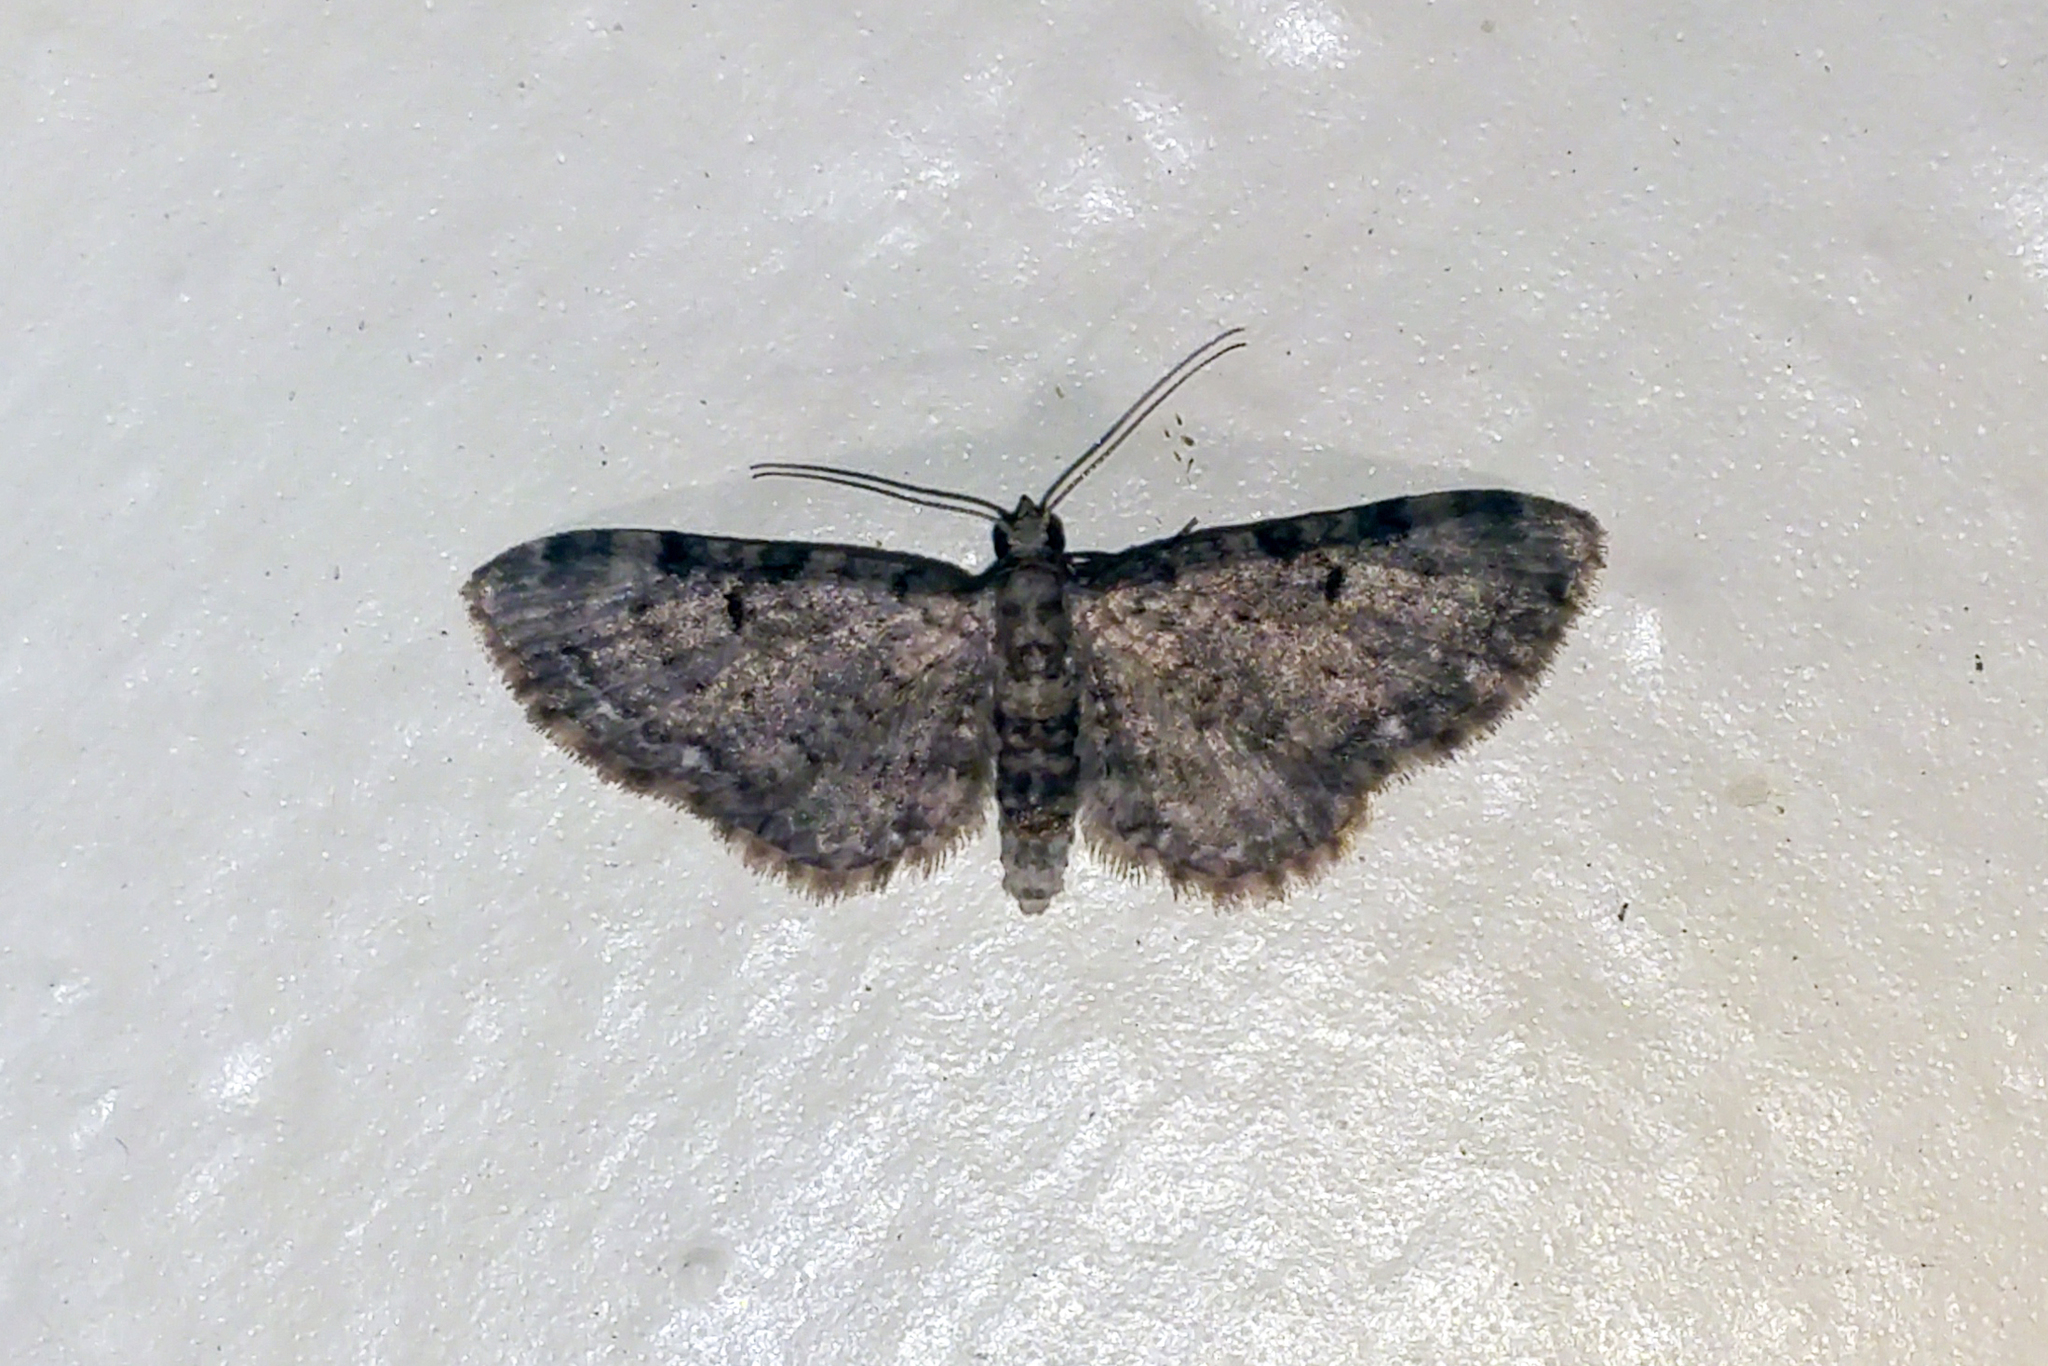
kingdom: Animalia
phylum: Arthropoda
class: Insecta
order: Lepidoptera
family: Geometridae
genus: Eupithecia
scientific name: Eupithecia miserulata
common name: Common eupithecia
